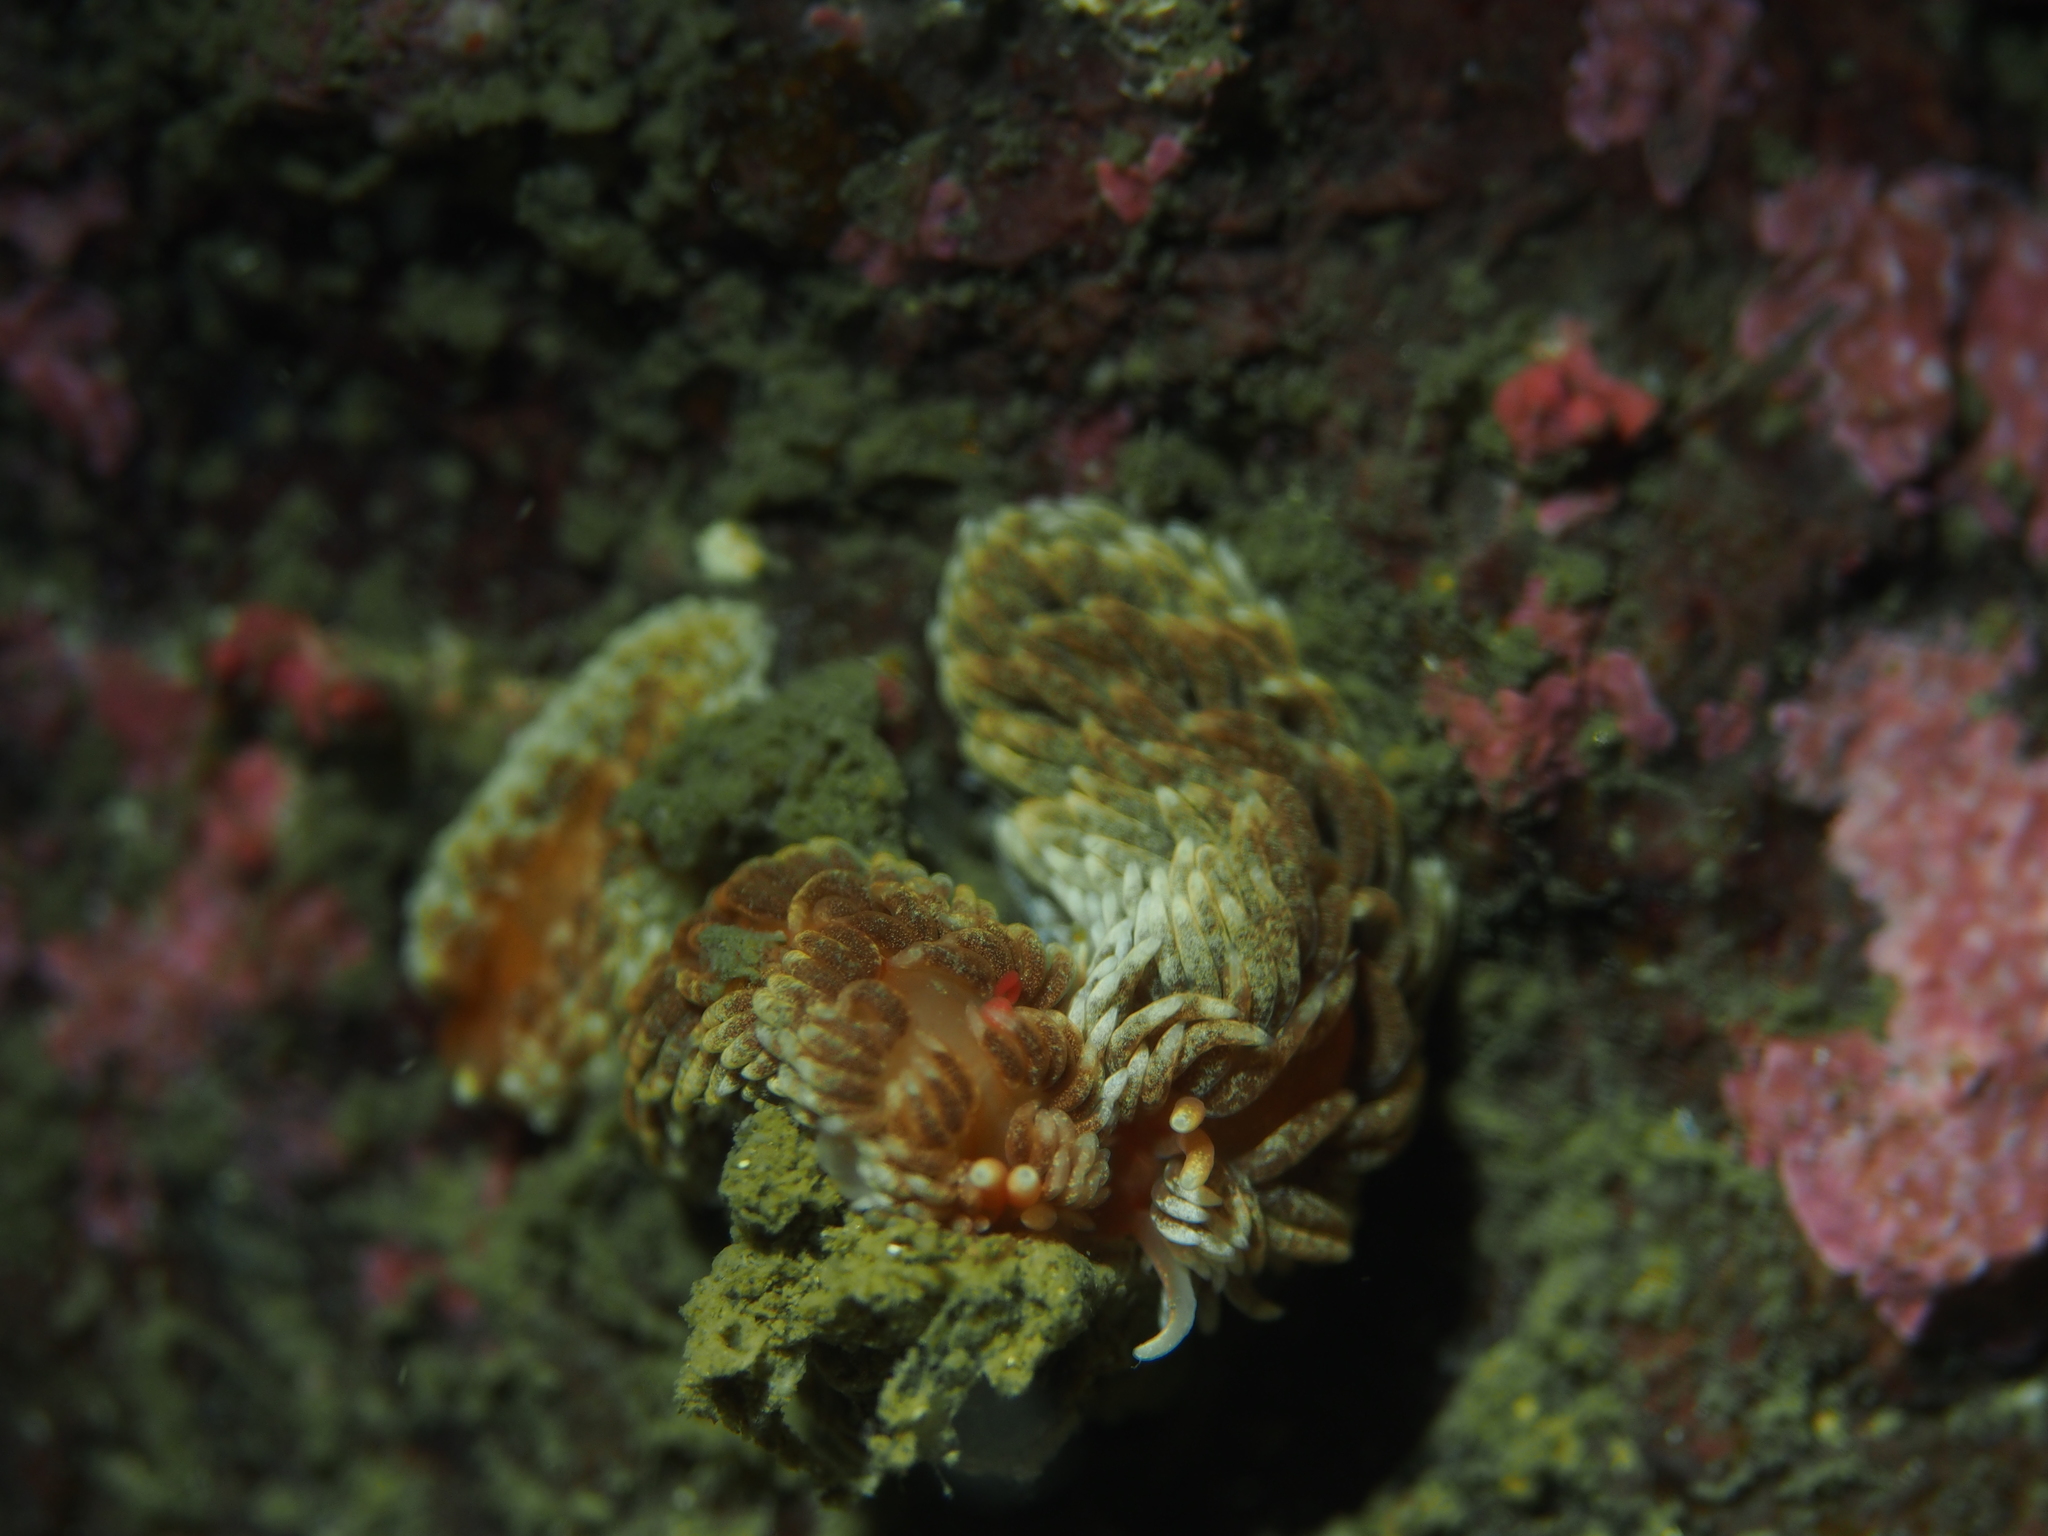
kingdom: Animalia
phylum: Mollusca
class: Gastropoda
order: Nudibranchia
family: Aeolidiidae
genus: Aeolidiella
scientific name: Aeolidiella glauca
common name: Orange-brown aeolid
